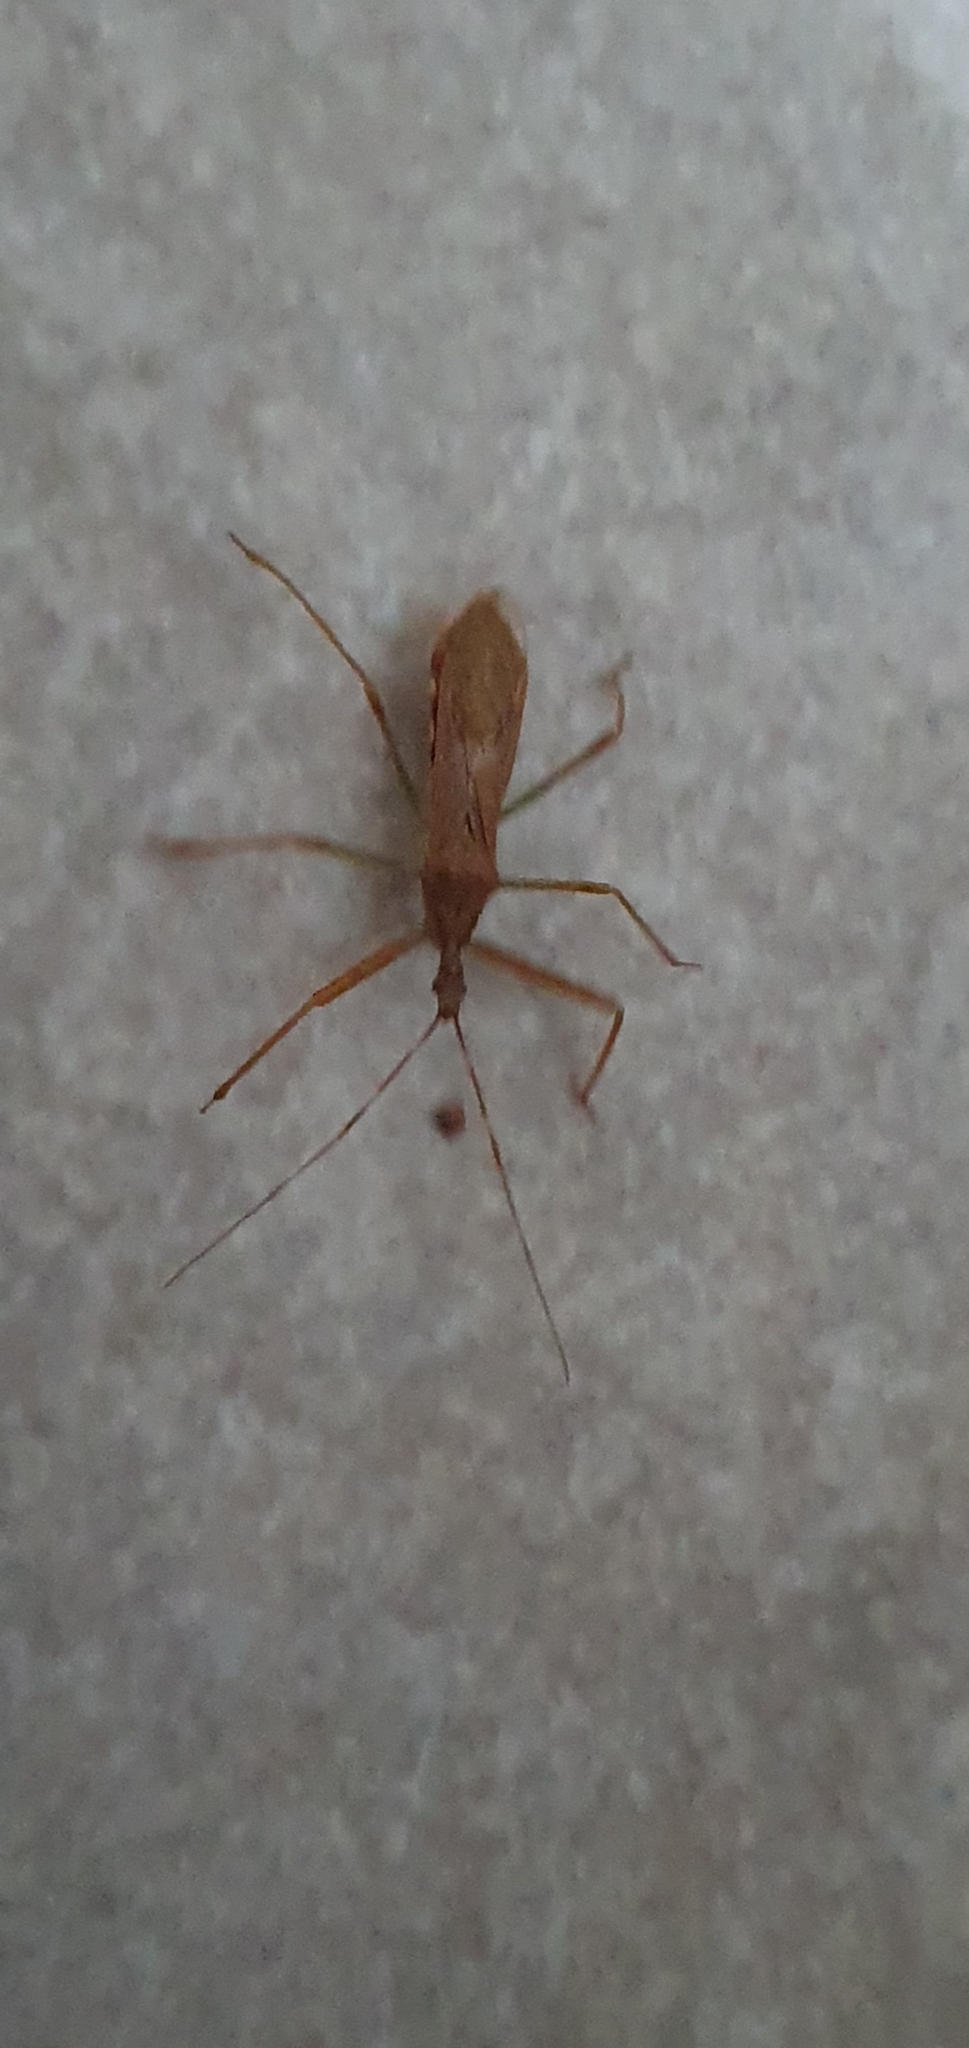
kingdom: Animalia
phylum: Arthropoda
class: Insecta
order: Hemiptera
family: Reduviidae
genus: Nagusta
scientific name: Nagusta goedelii
